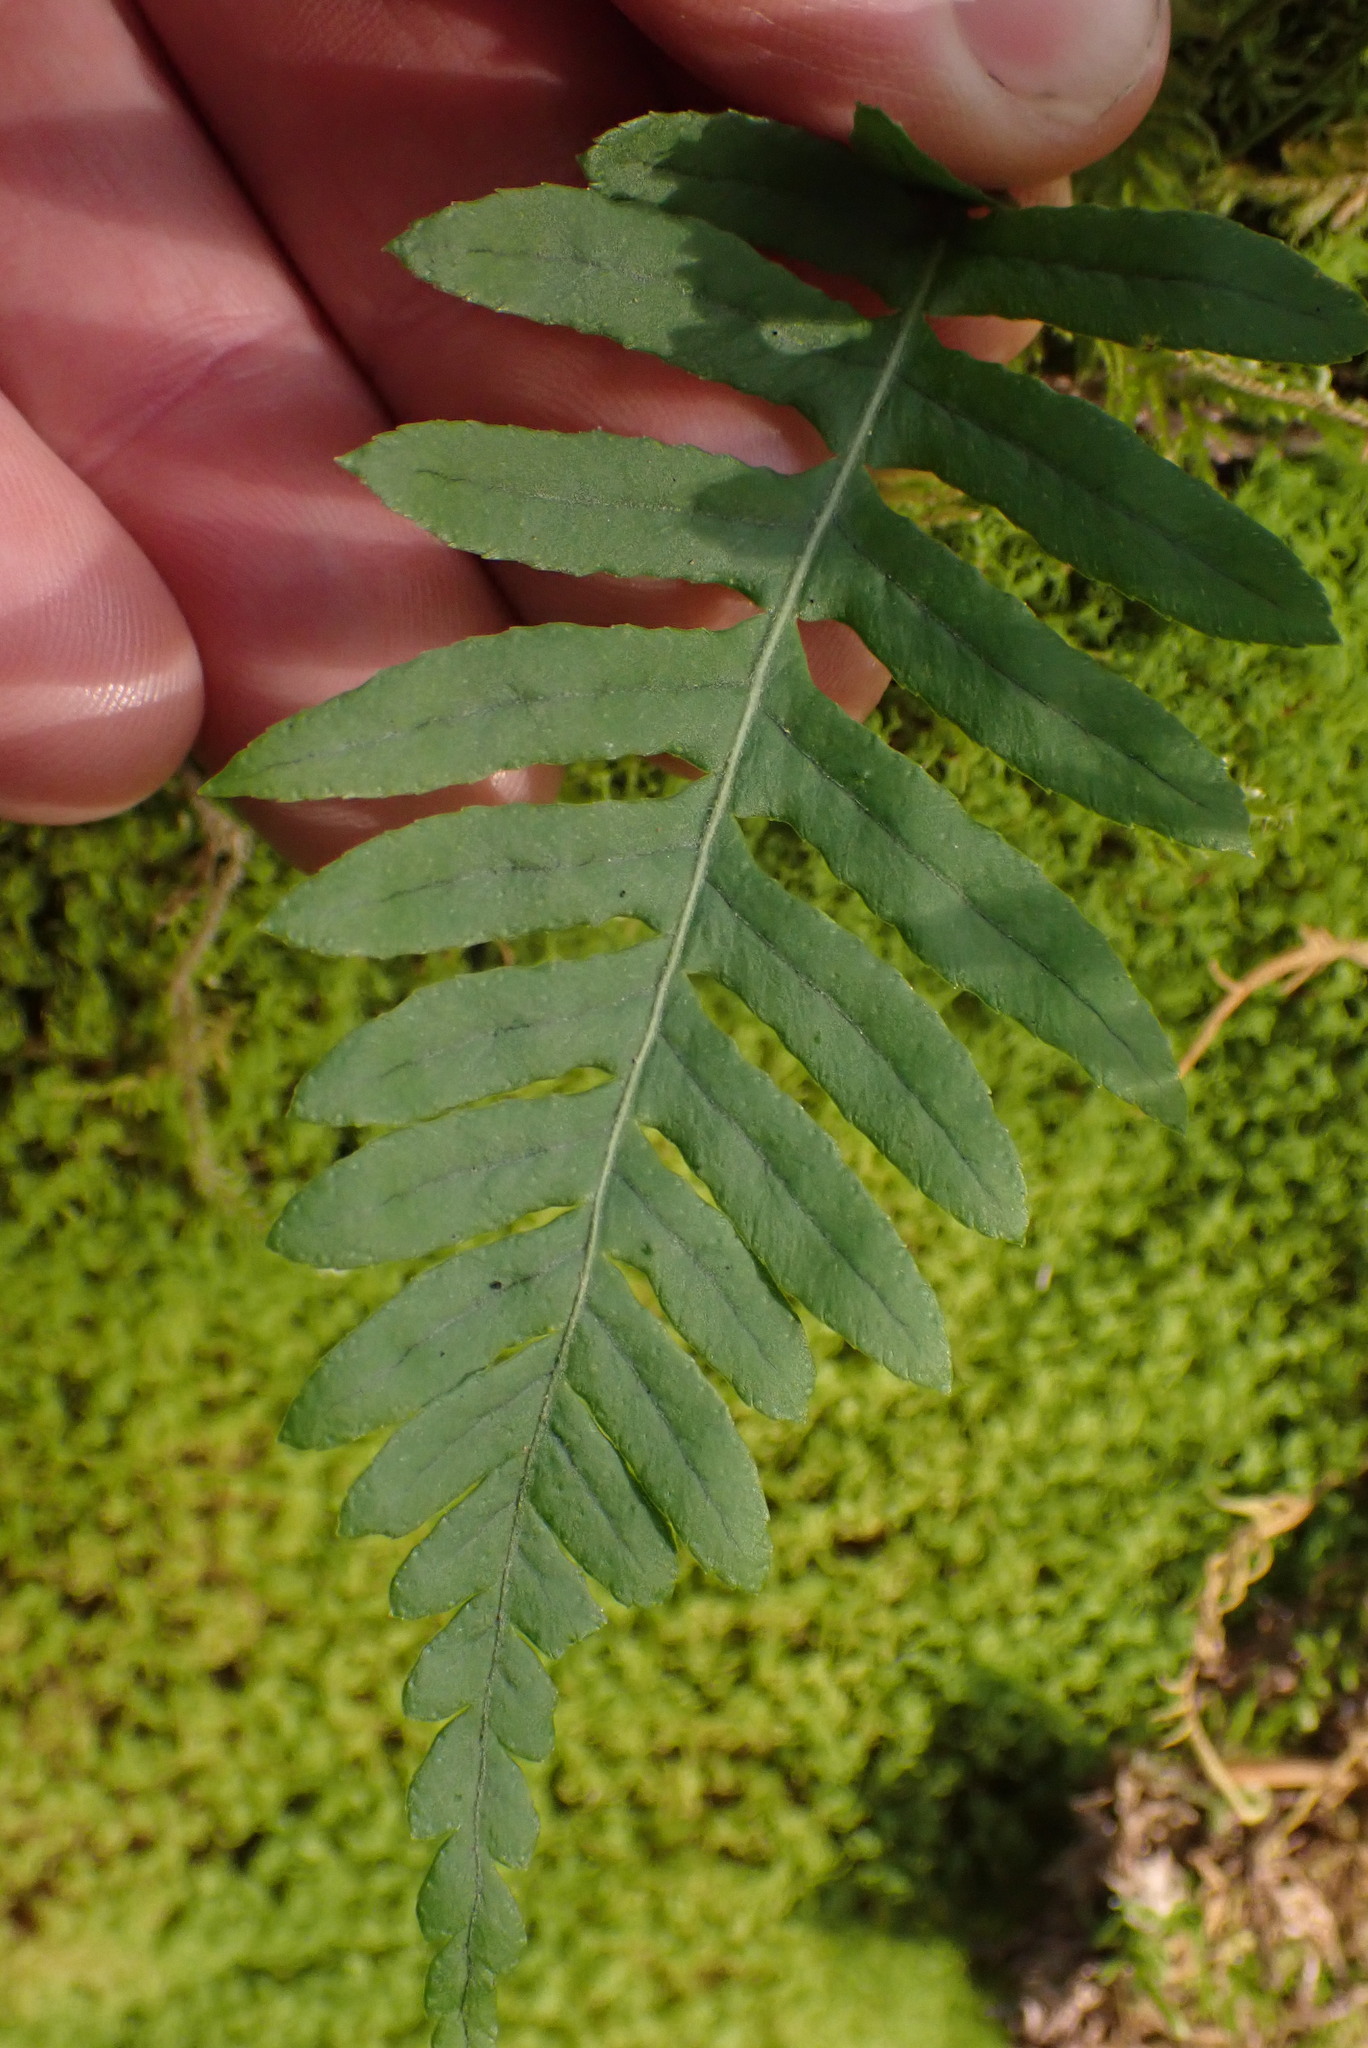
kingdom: Plantae
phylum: Tracheophyta
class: Polypodiopsida
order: Polypodiales
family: Polypodiaceae
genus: Polypodium
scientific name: Polypodium glycyrrhiza
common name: Licorice fern
